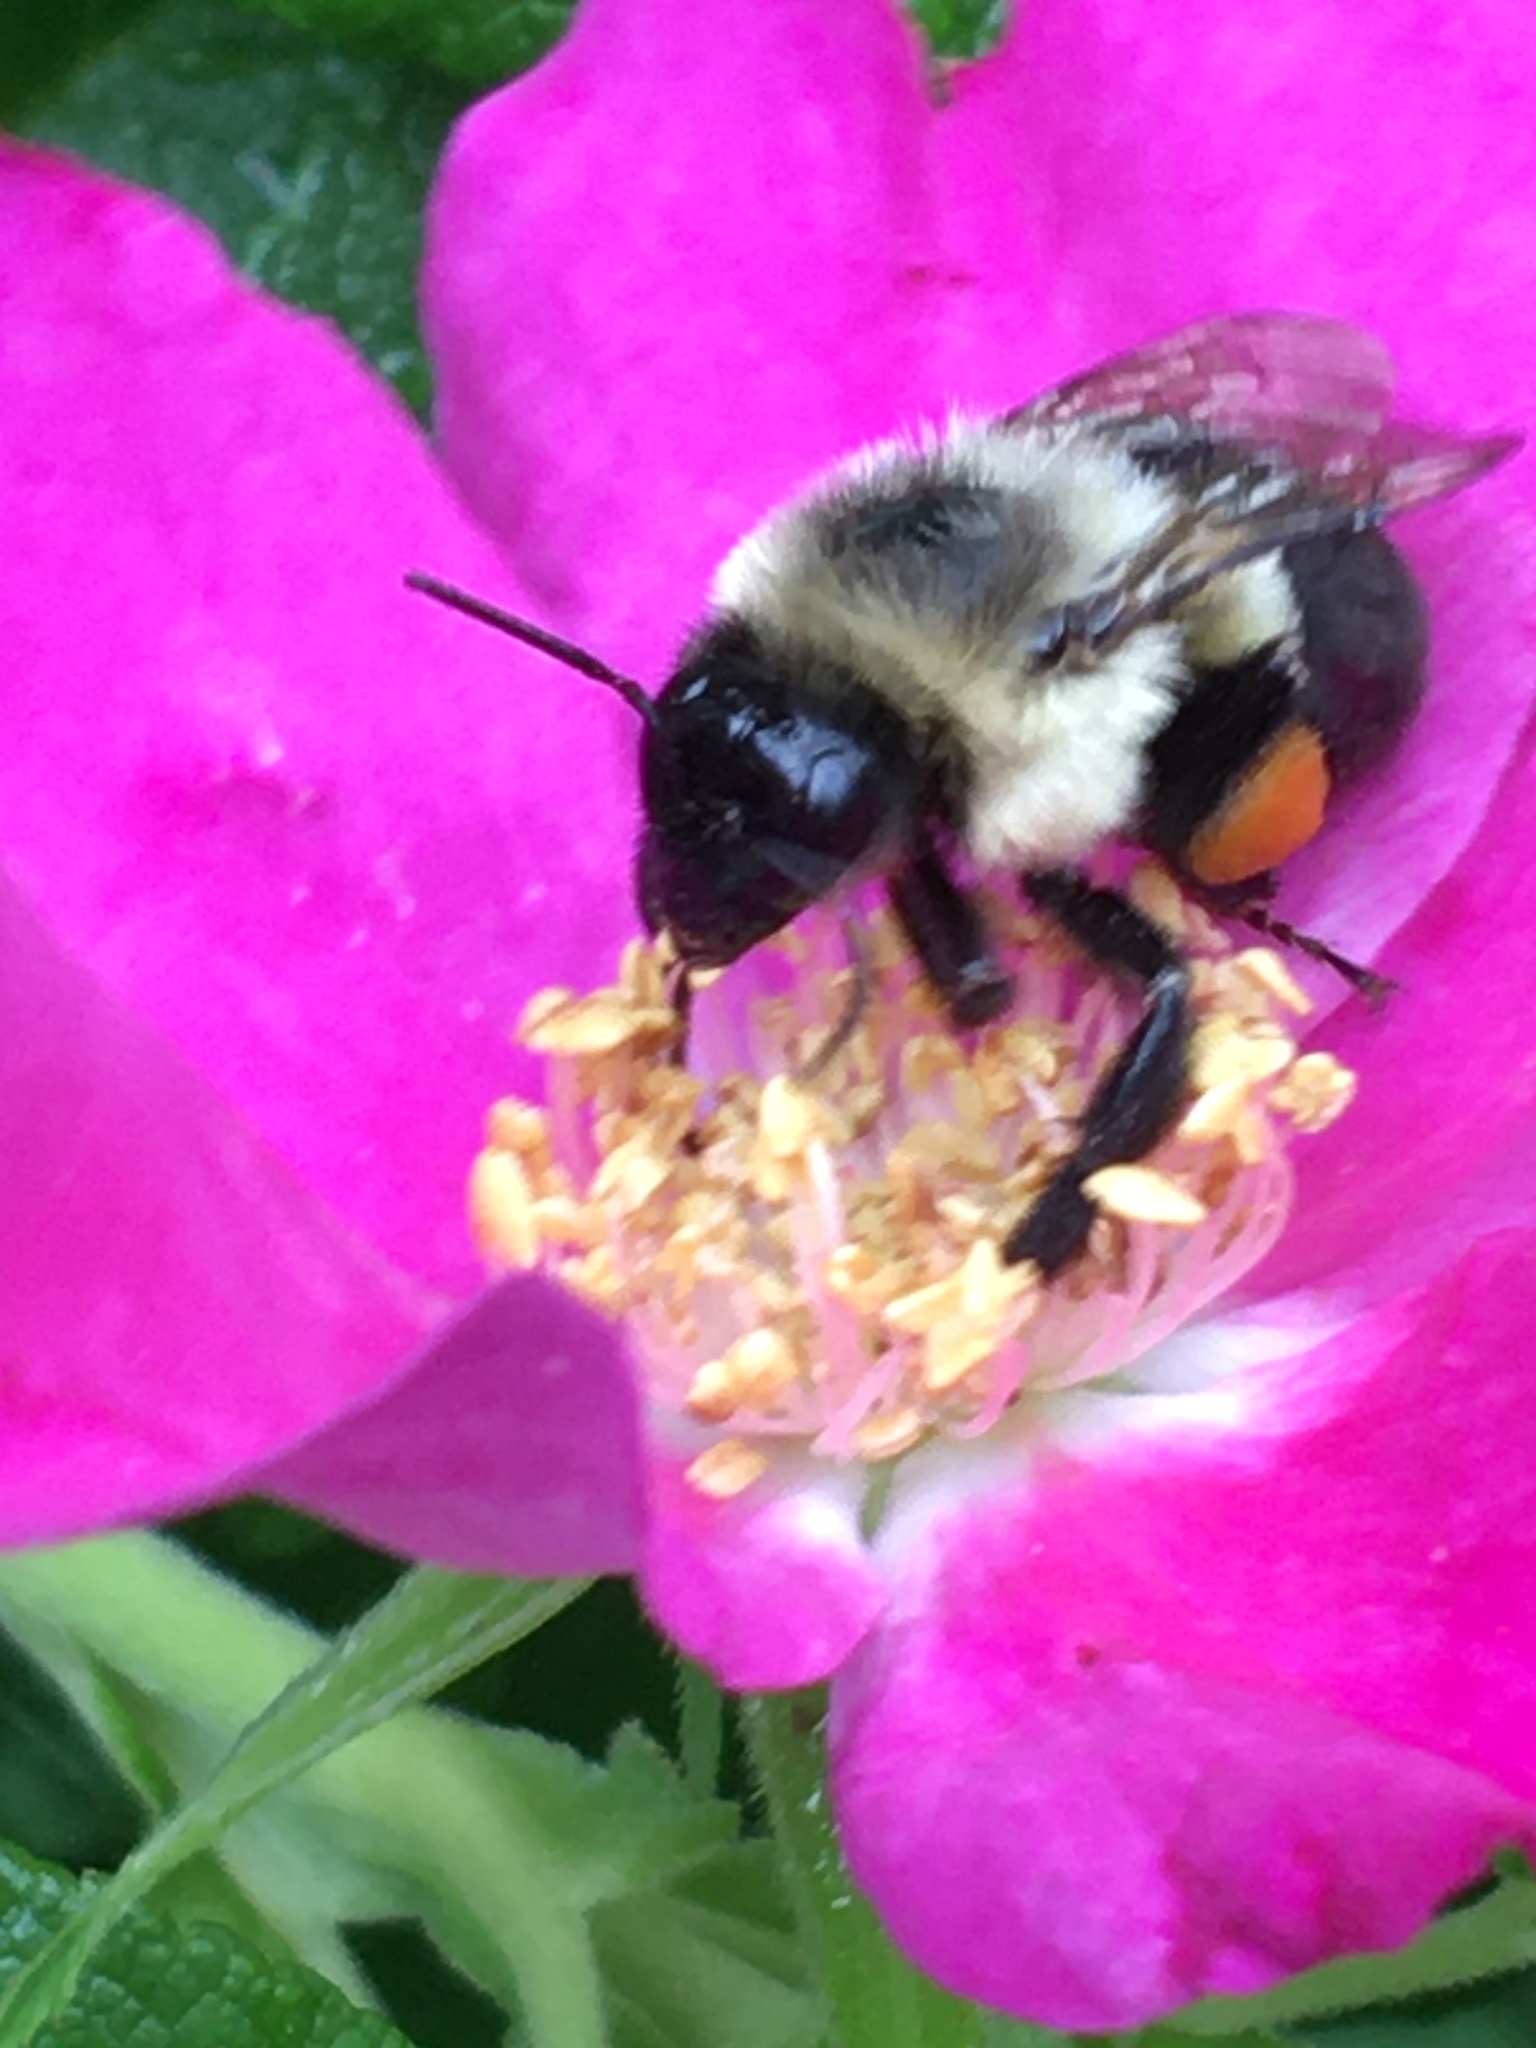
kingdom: Animalia
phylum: Arthropoda
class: Insecta
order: Hymenoptera
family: Apidae
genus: Bombus
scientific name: Bombus impatiens
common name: Common eastern bumble bee
